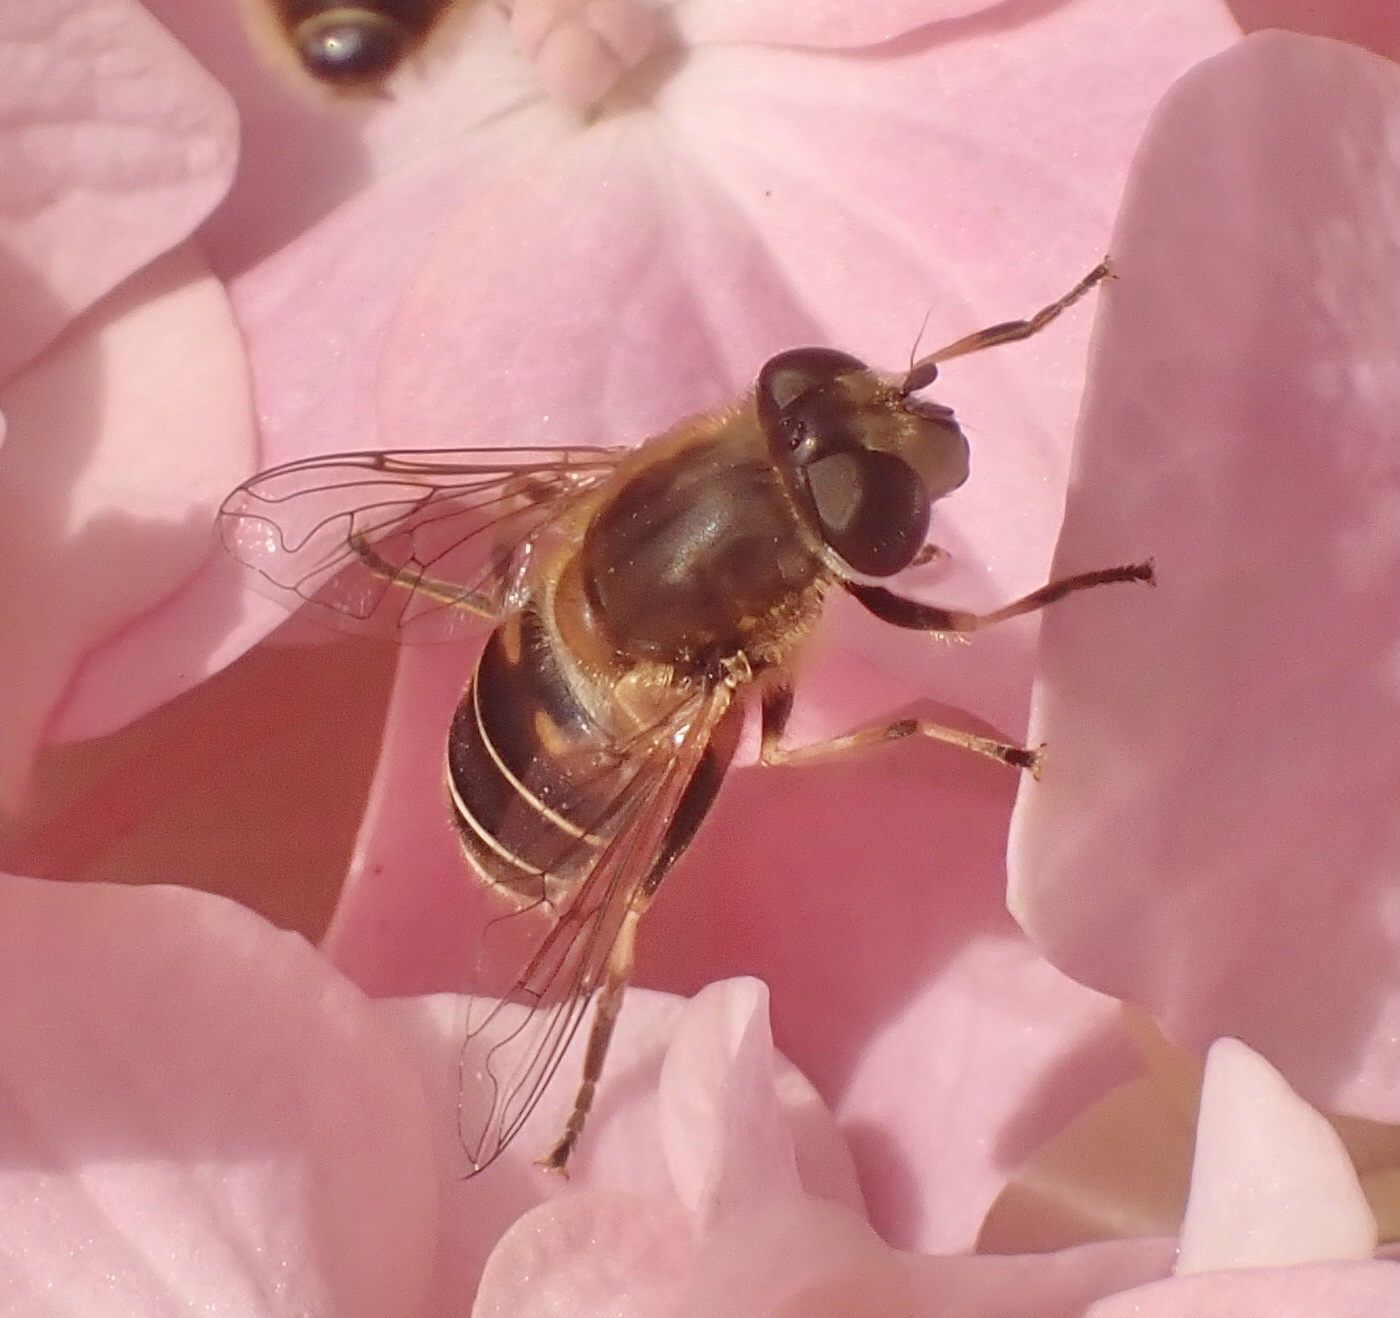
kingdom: Animalia
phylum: Arthropoda
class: Insecta
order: Diptera
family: Syrphidae
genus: Eristalis
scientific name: Eristalis nemorum
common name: Orange-spined drone fly
